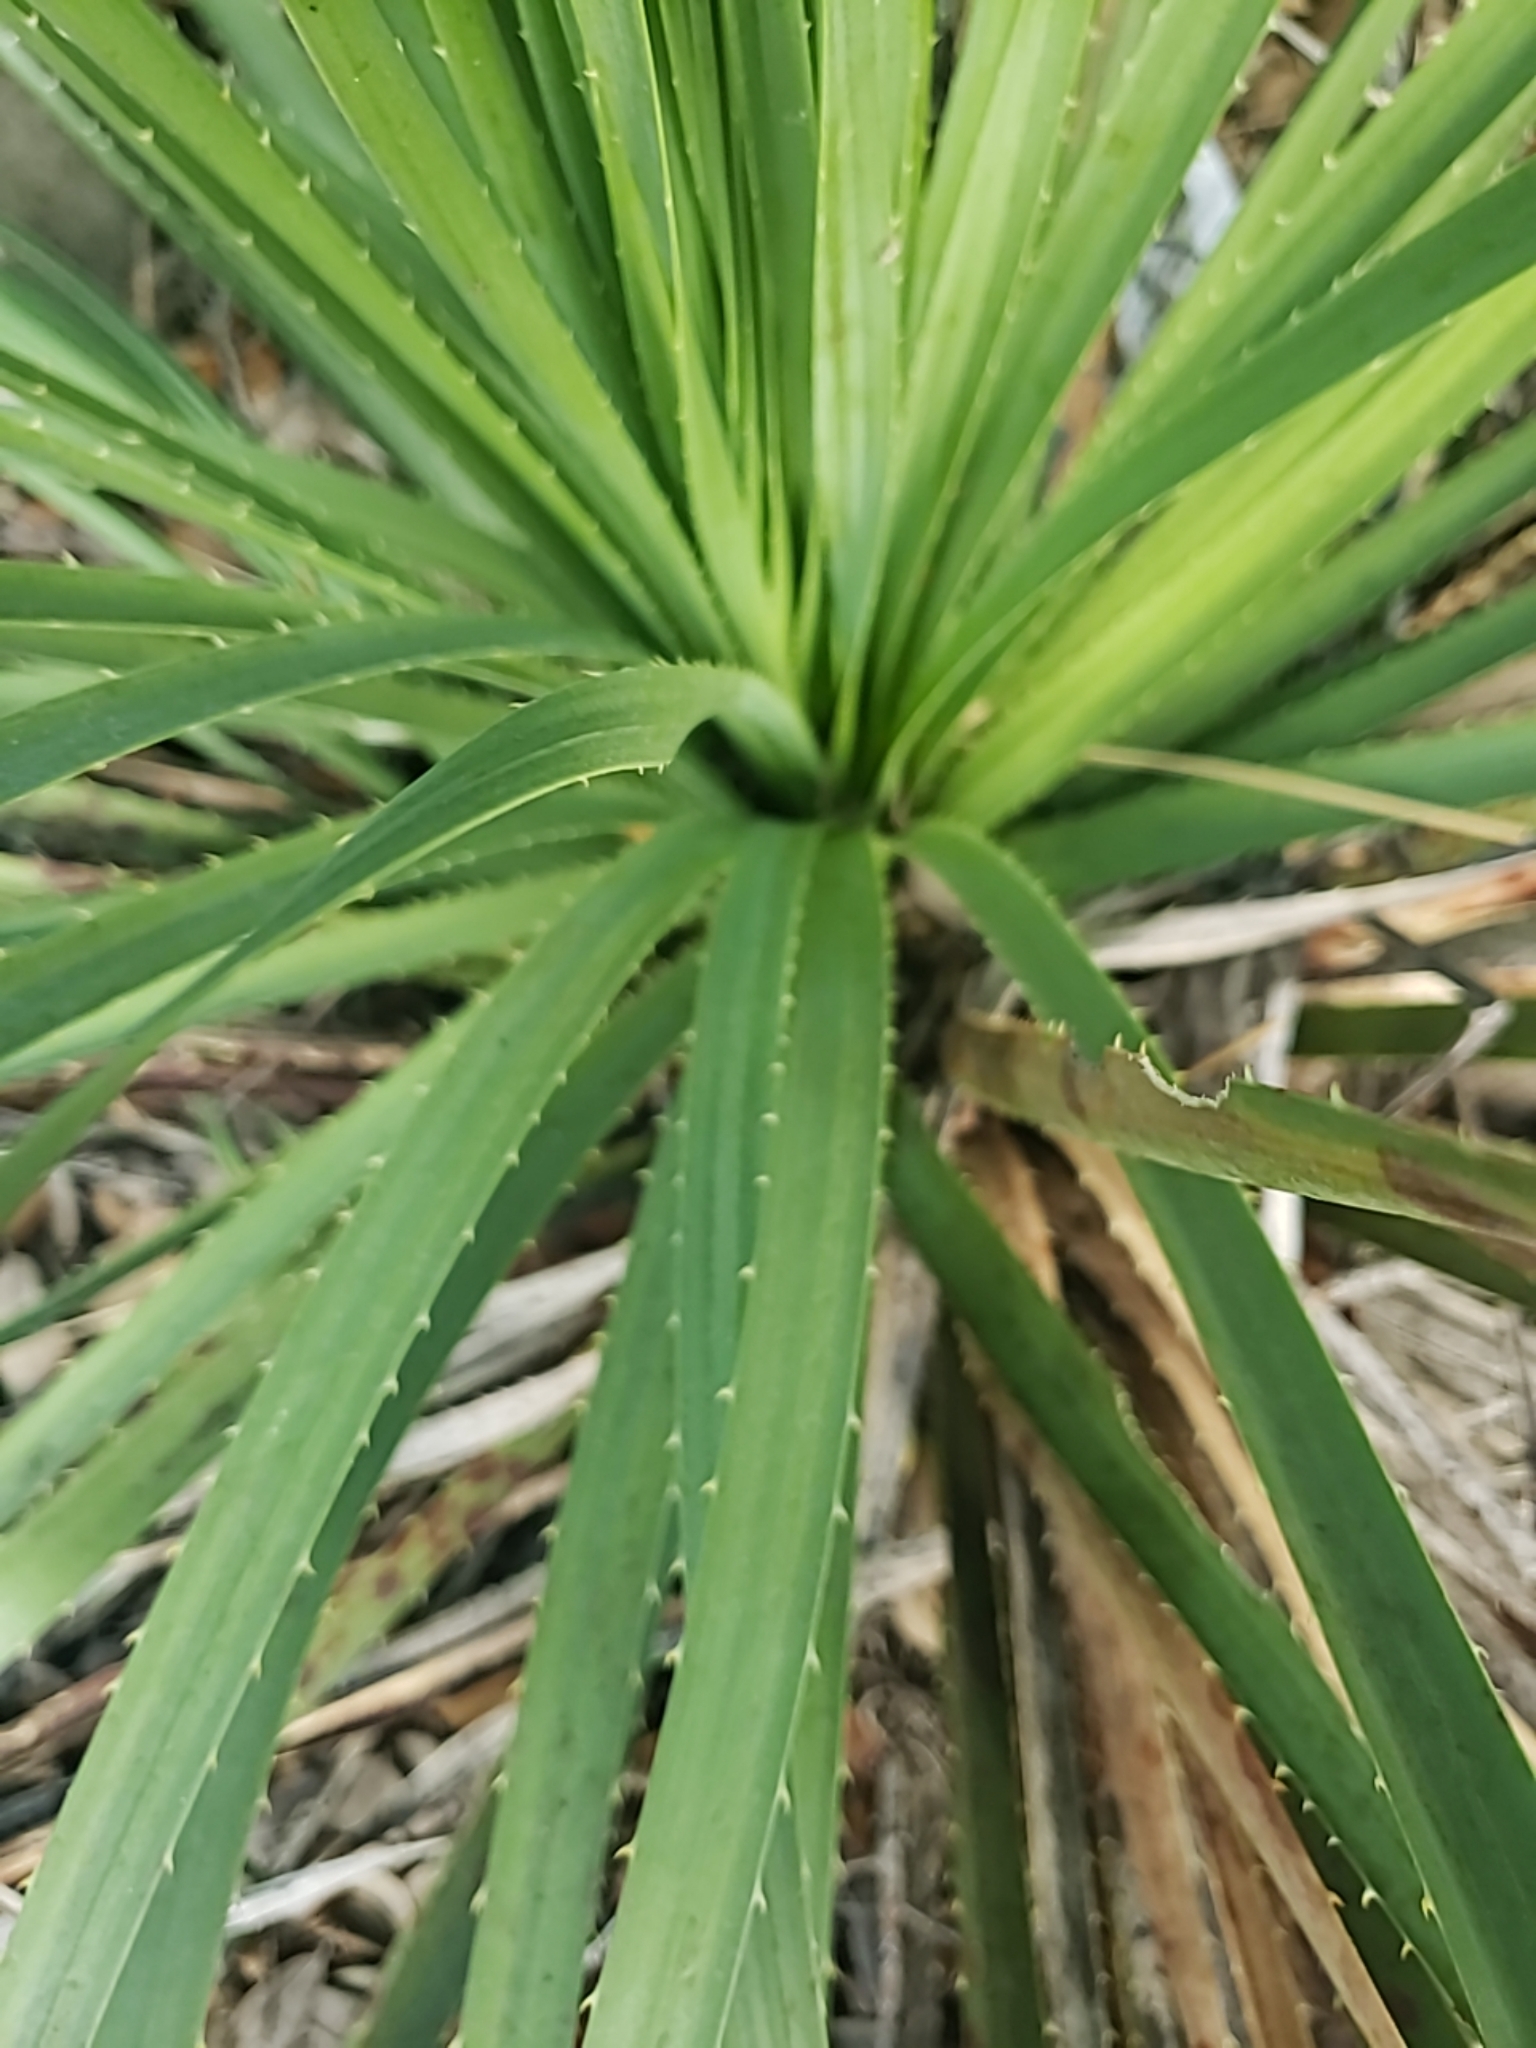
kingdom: Plantae
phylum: Tracheophyta
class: Liliopsida
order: Asparagales
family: Asparagaceae
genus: Dasylirion
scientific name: Dasylirion texanum
